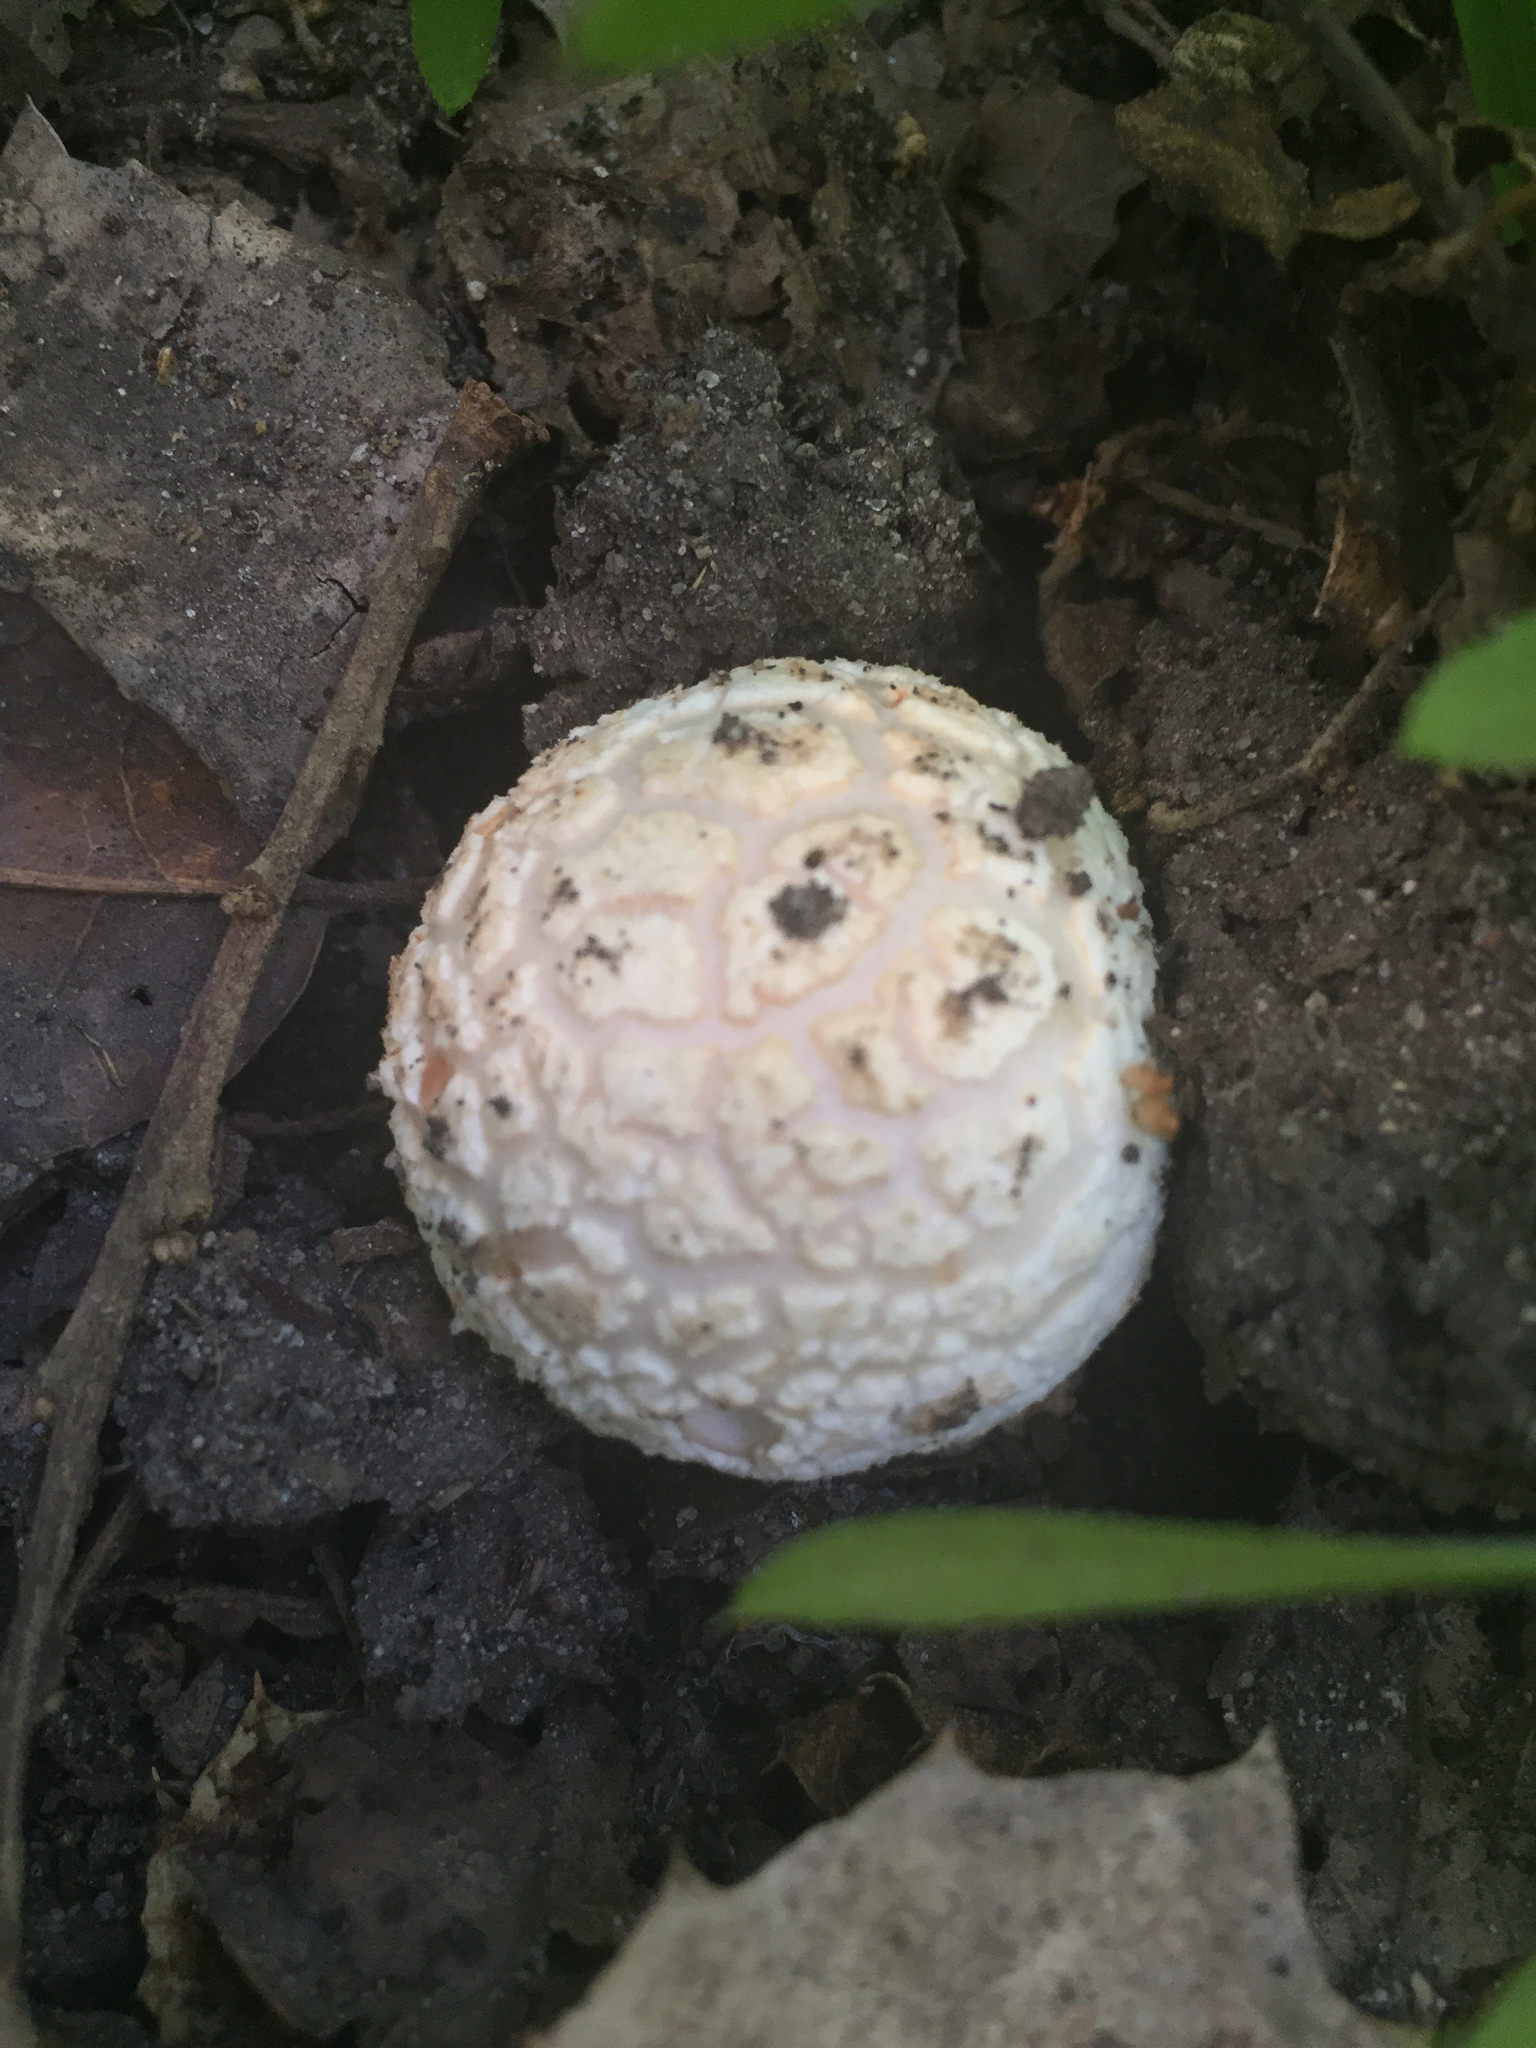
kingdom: Fungi
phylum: Basidiomycota
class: Agaricomycetes
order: Agaricales
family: Amanitaceae
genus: Amanita
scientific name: Amanita novinupta
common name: Blushing bride
